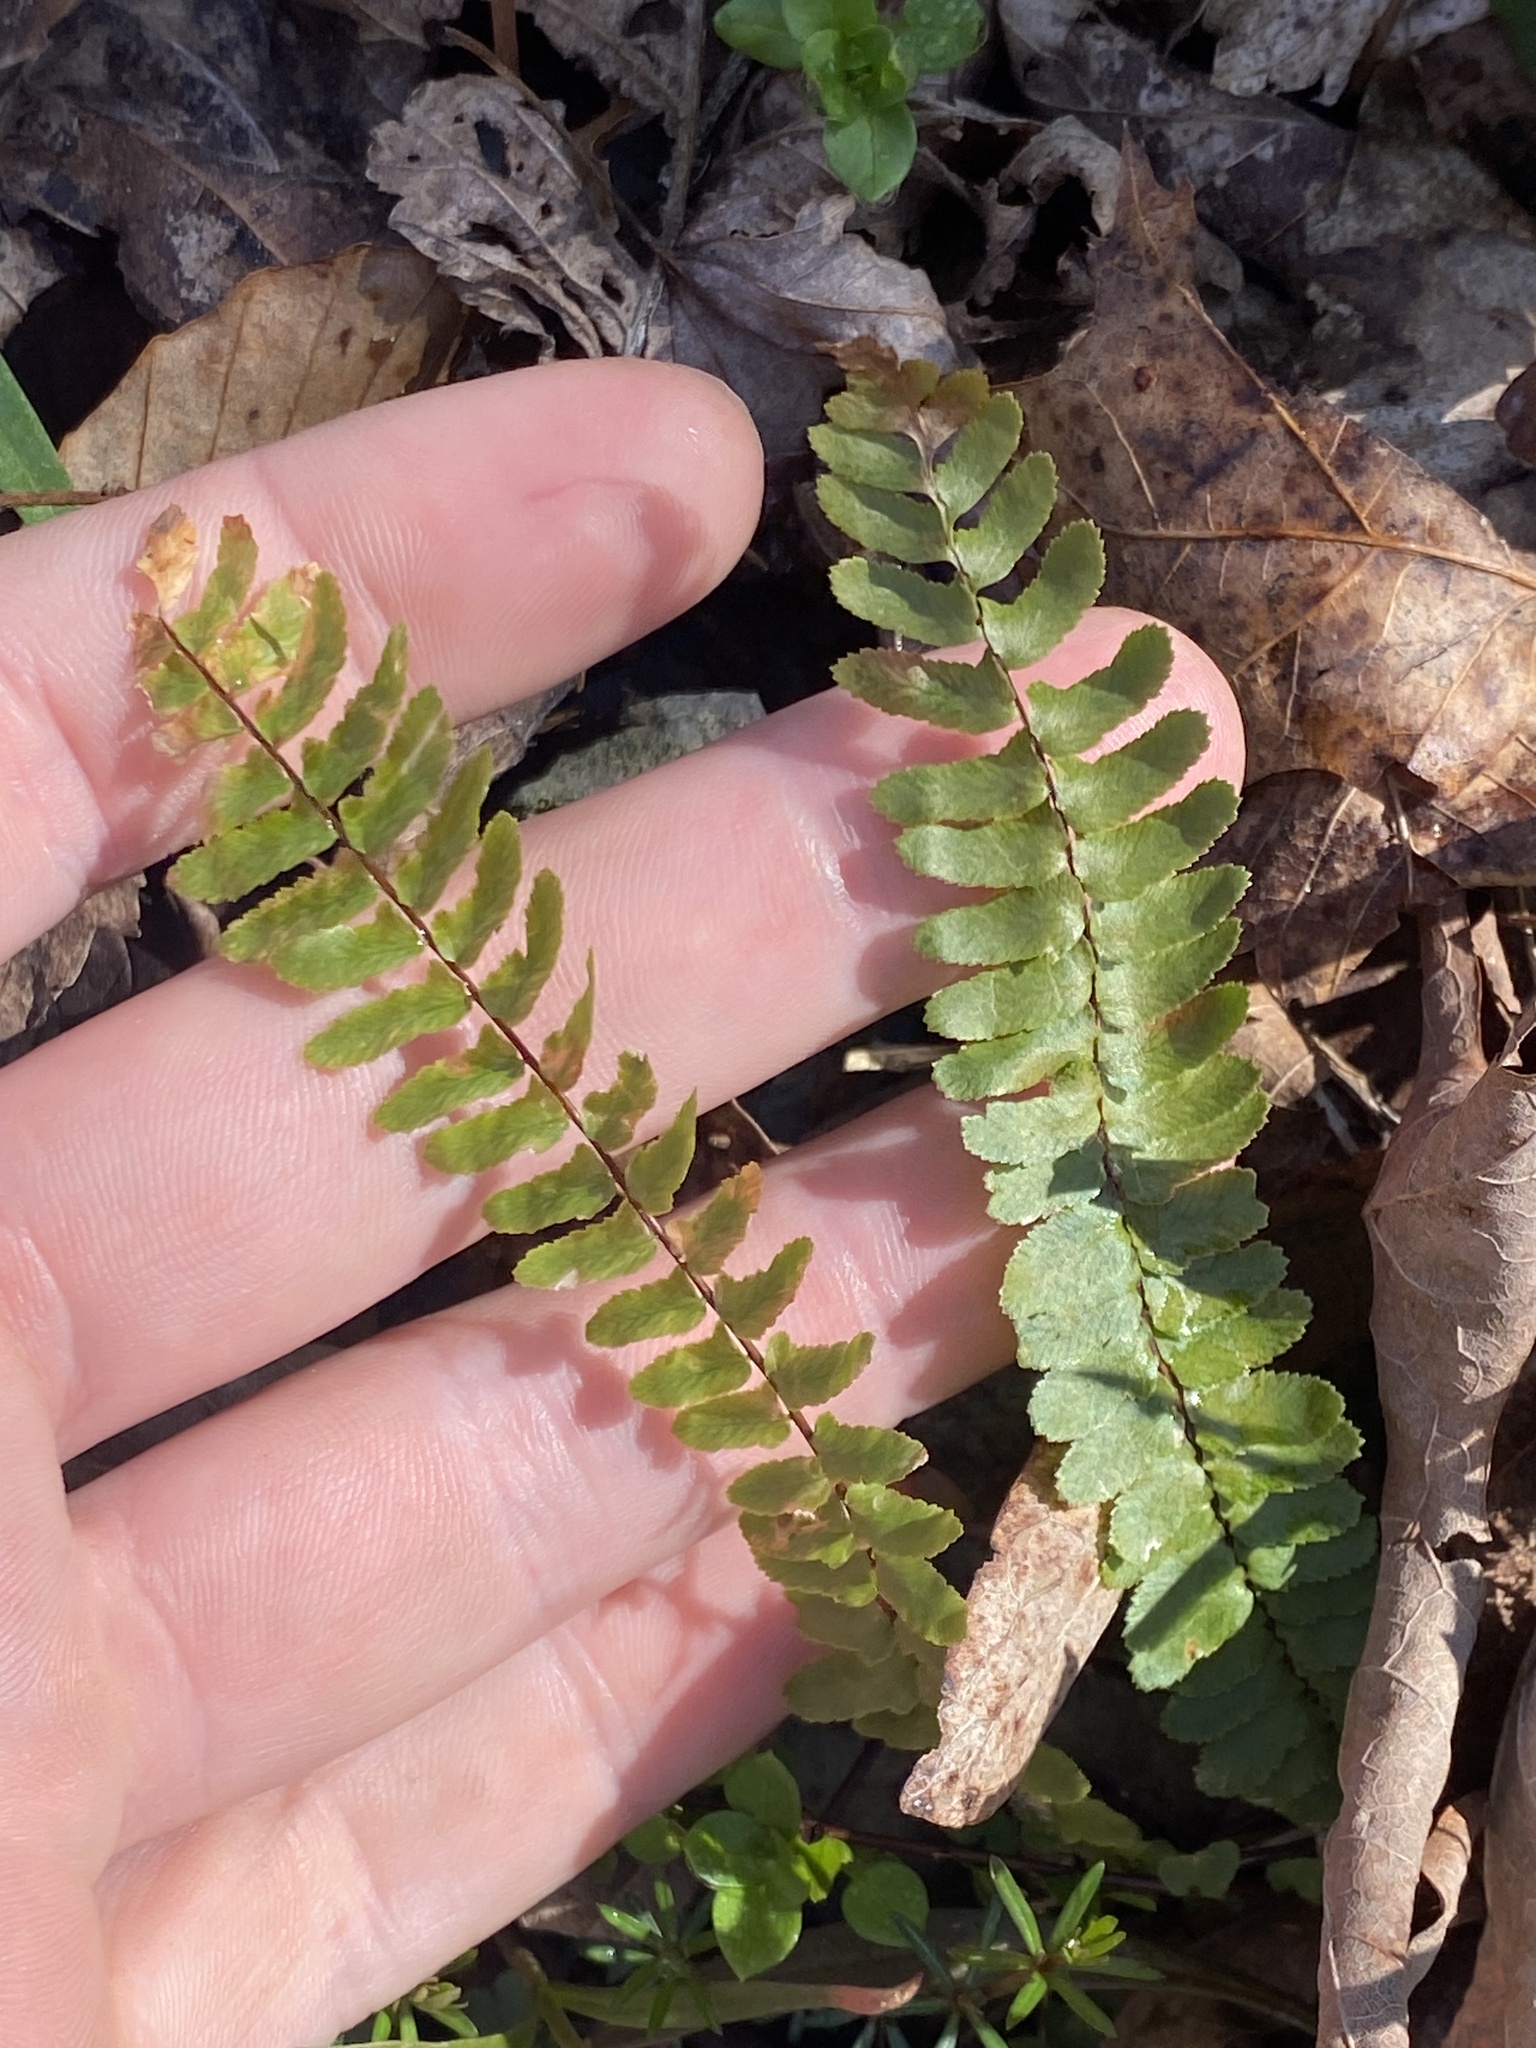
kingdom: Plantae
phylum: Tracheophyta
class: Polypodiopsida
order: Polypodiales
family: Aspleniaceae
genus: Asplenium
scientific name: Asplenium platyneuron
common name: Ebony spleenwort
